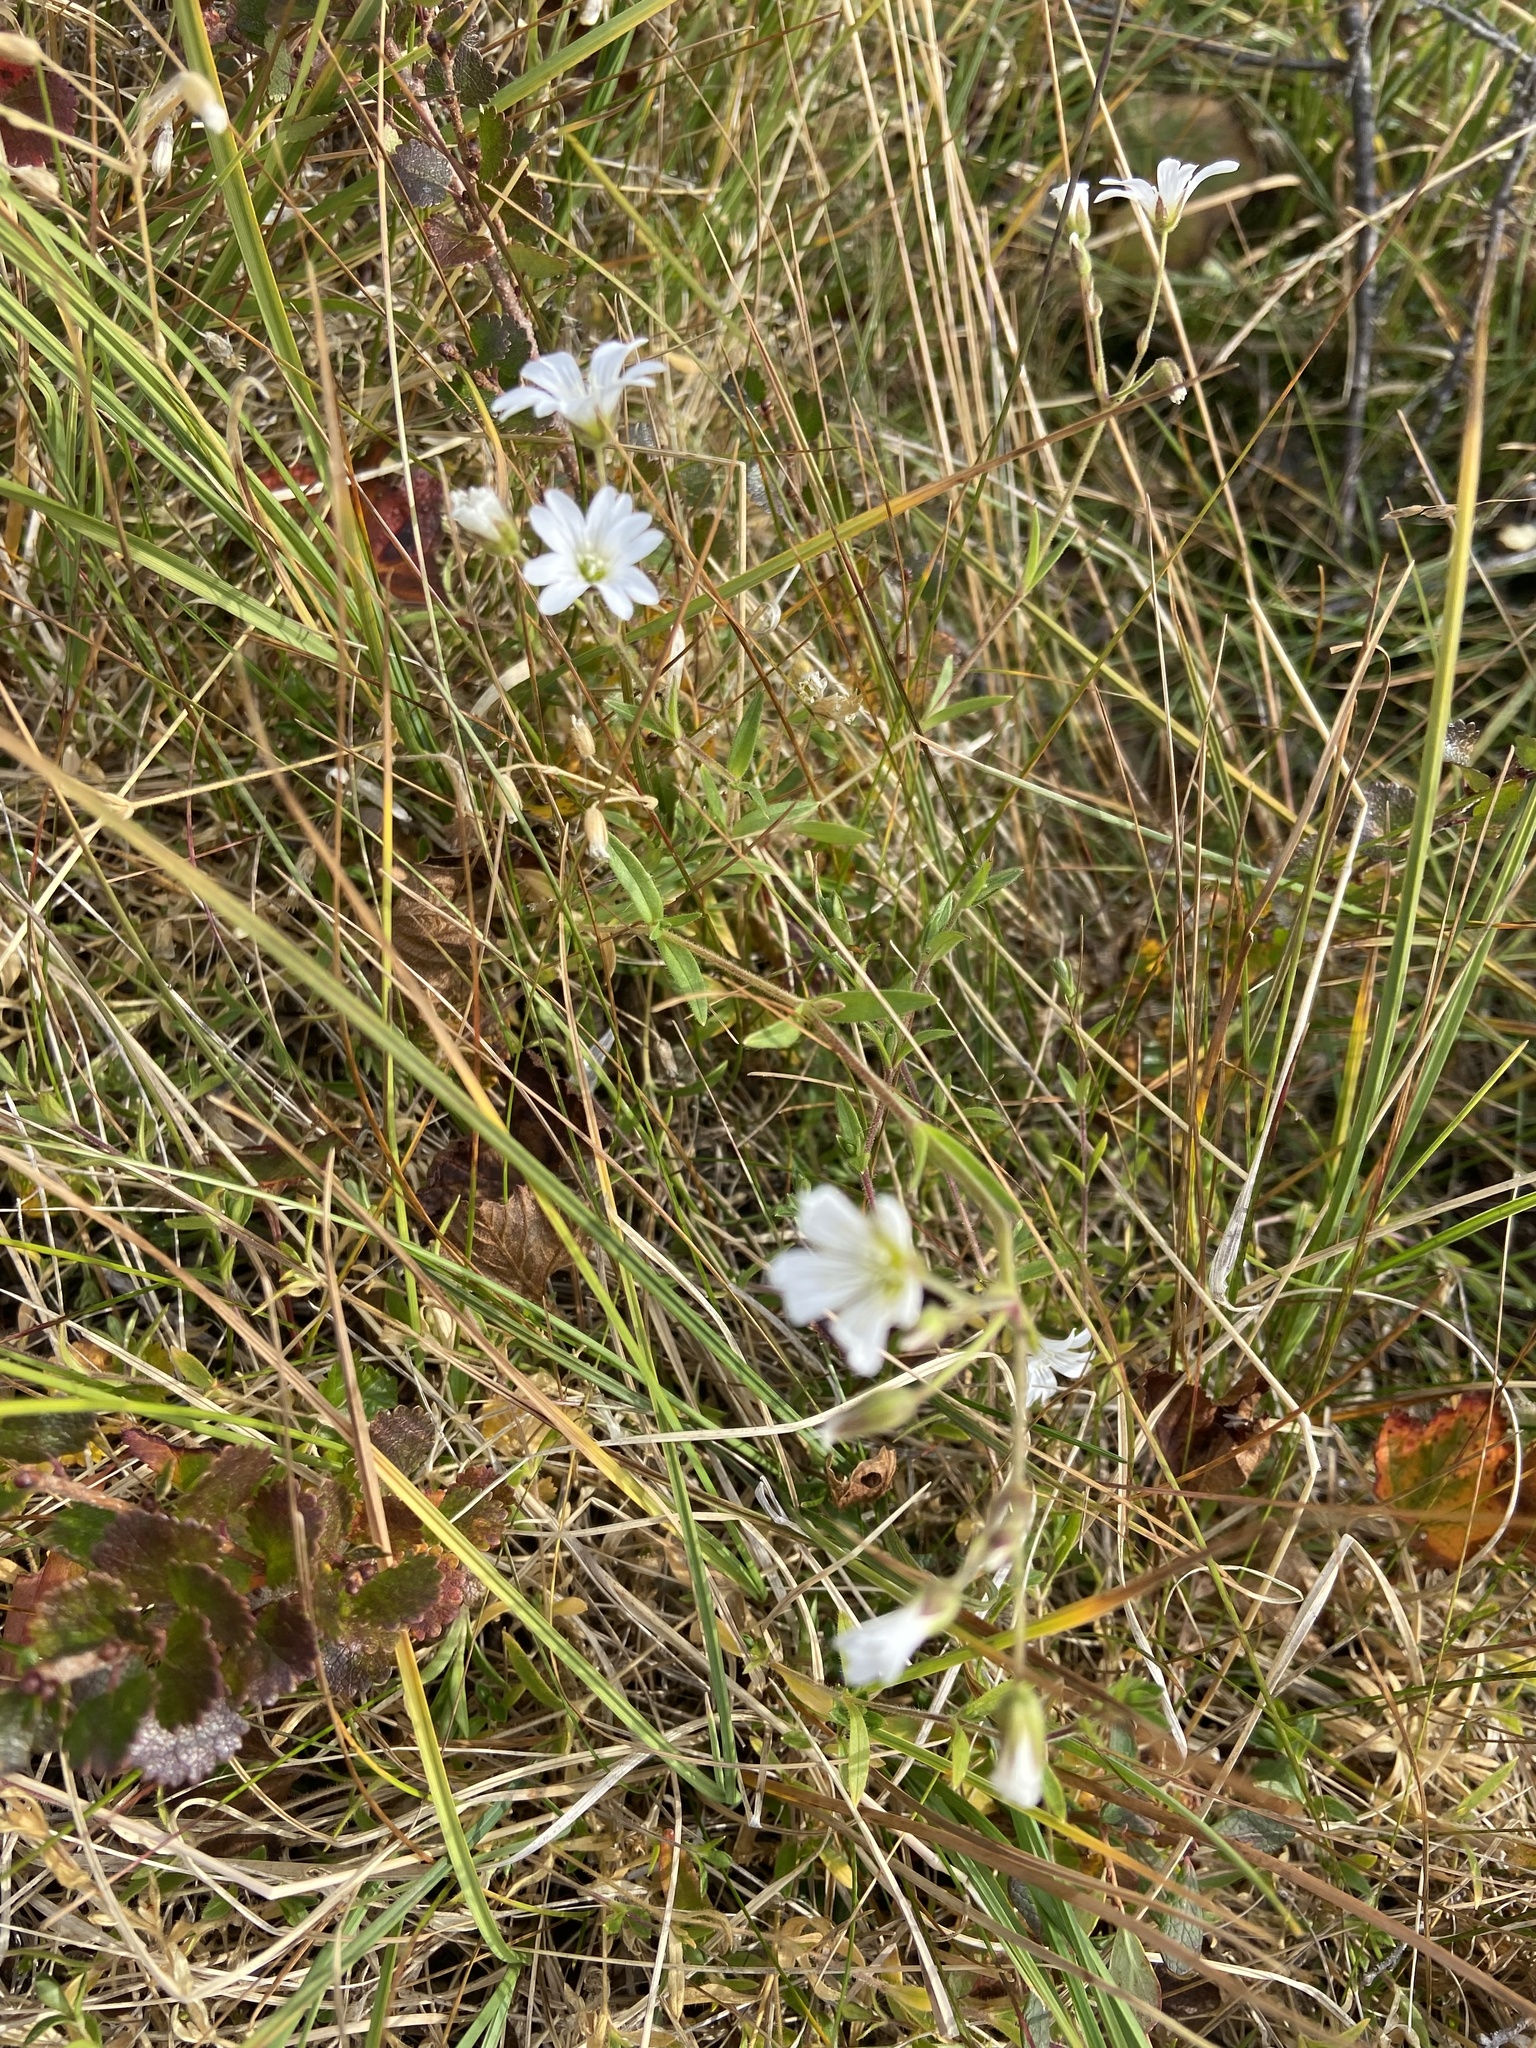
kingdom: Plantae
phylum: Tracheophyta
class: Magnoliopsida
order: Caryophyllales
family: Caryophyllaceae
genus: Cerastium
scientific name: Cerastium beeringianum
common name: Bering mouse-ear chickweed
